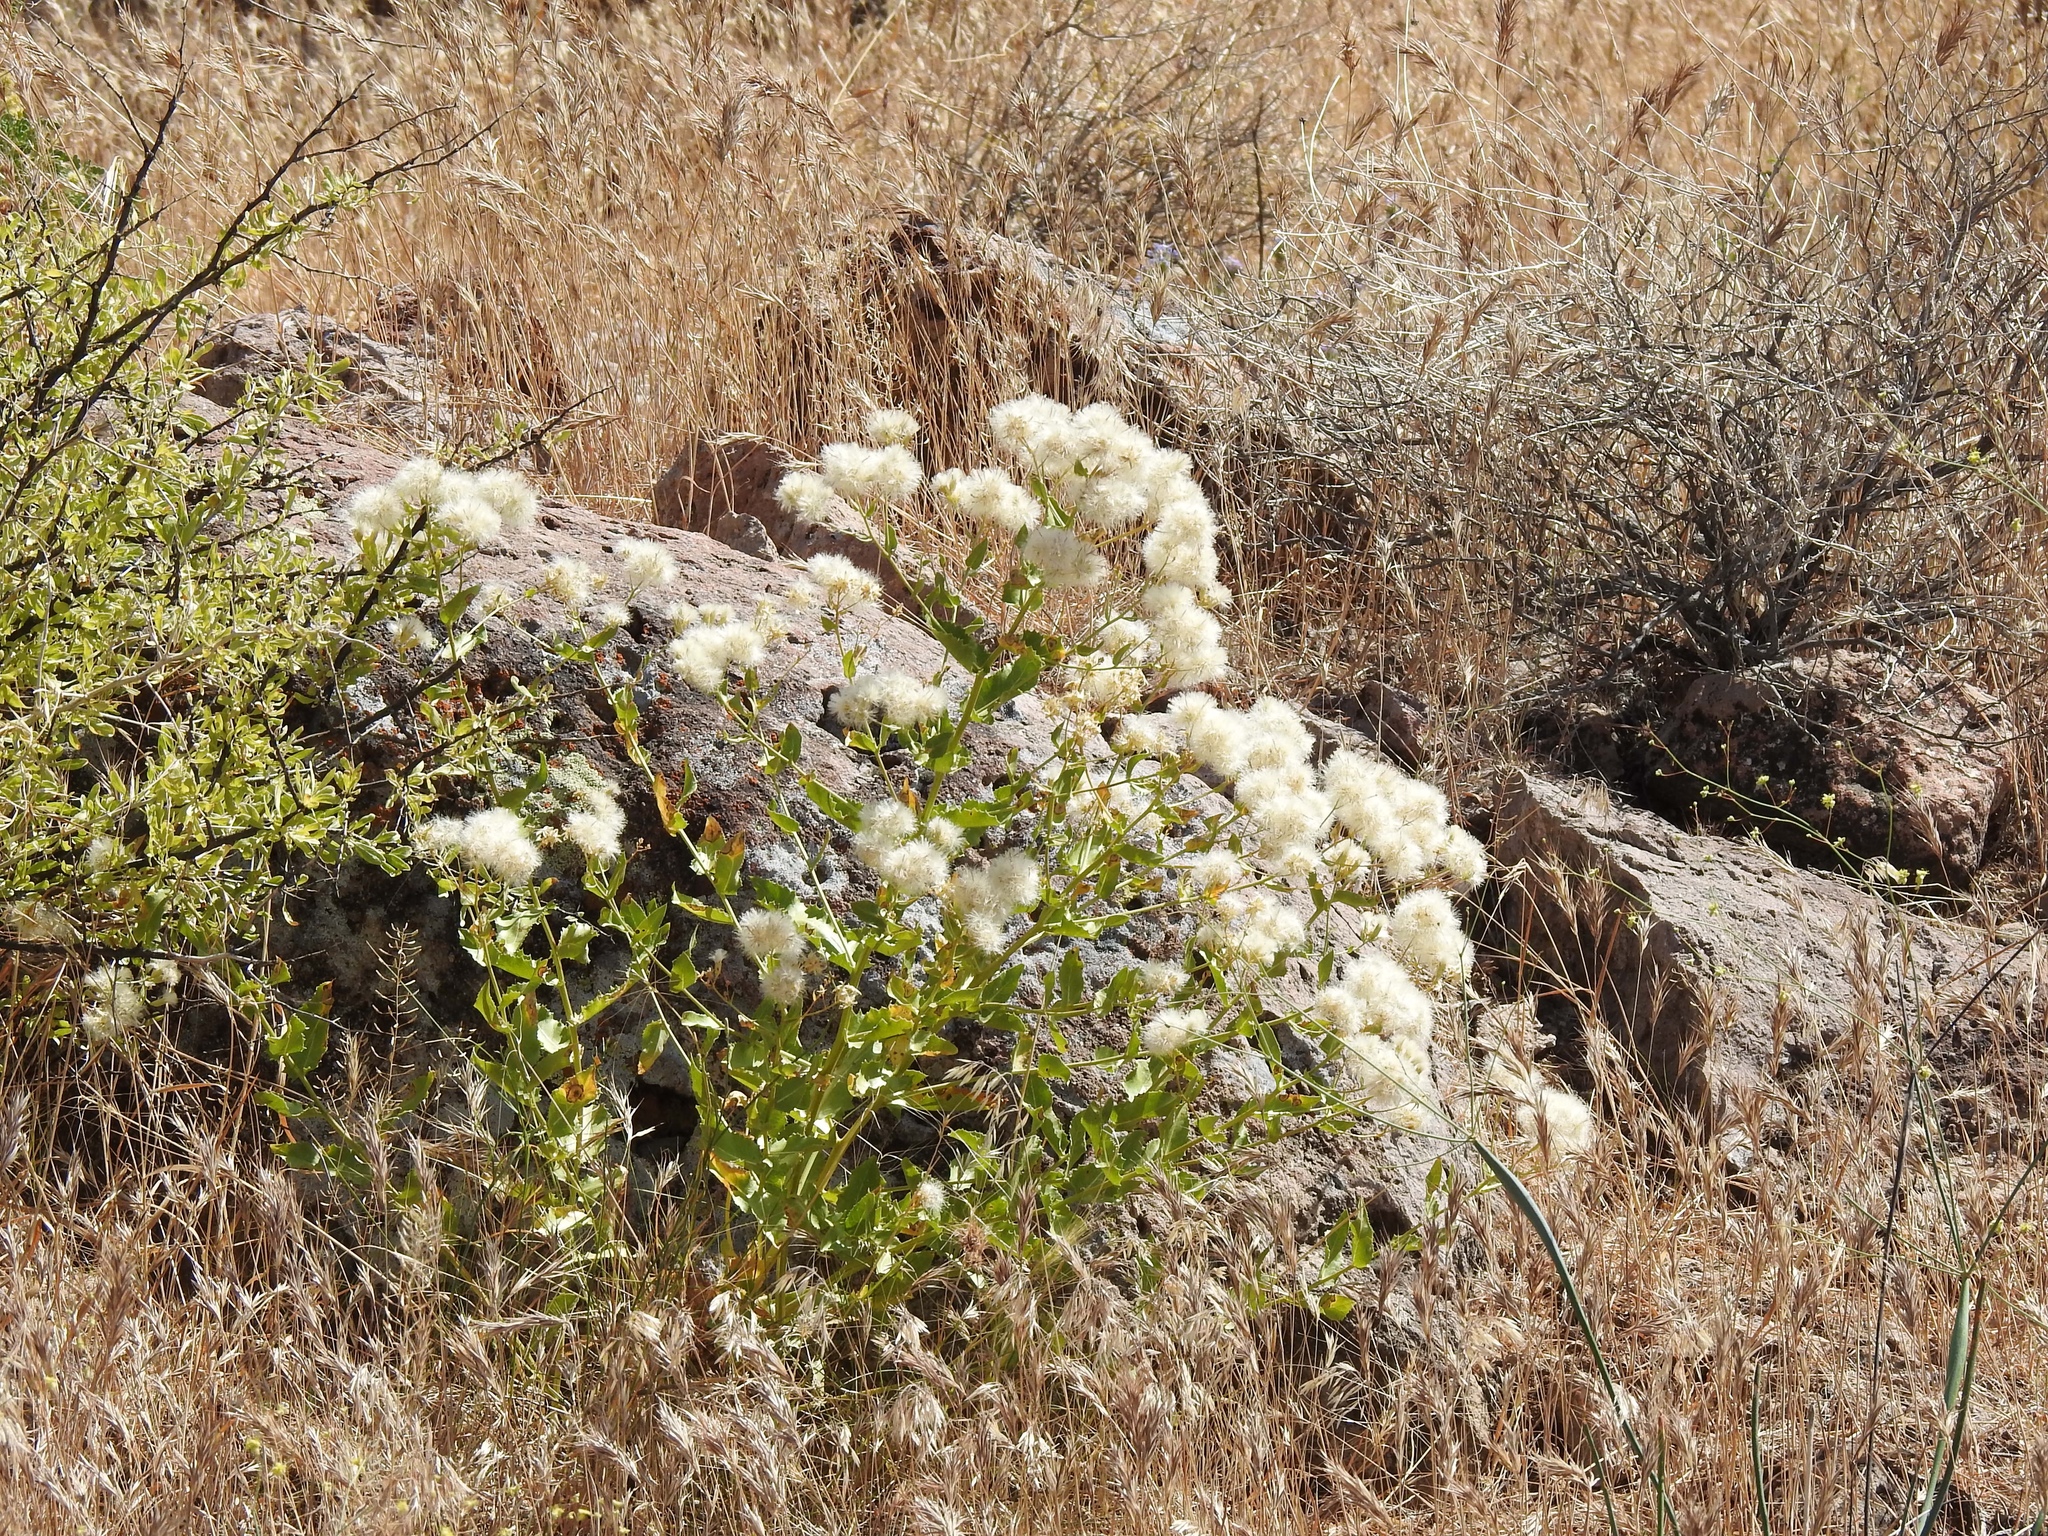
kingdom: Plantae
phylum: Tracheophyta
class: Magnoliopsida
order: Asterales
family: Asteraceae
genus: Acourtia
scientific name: Acourtia wrightii
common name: Brownfoot
